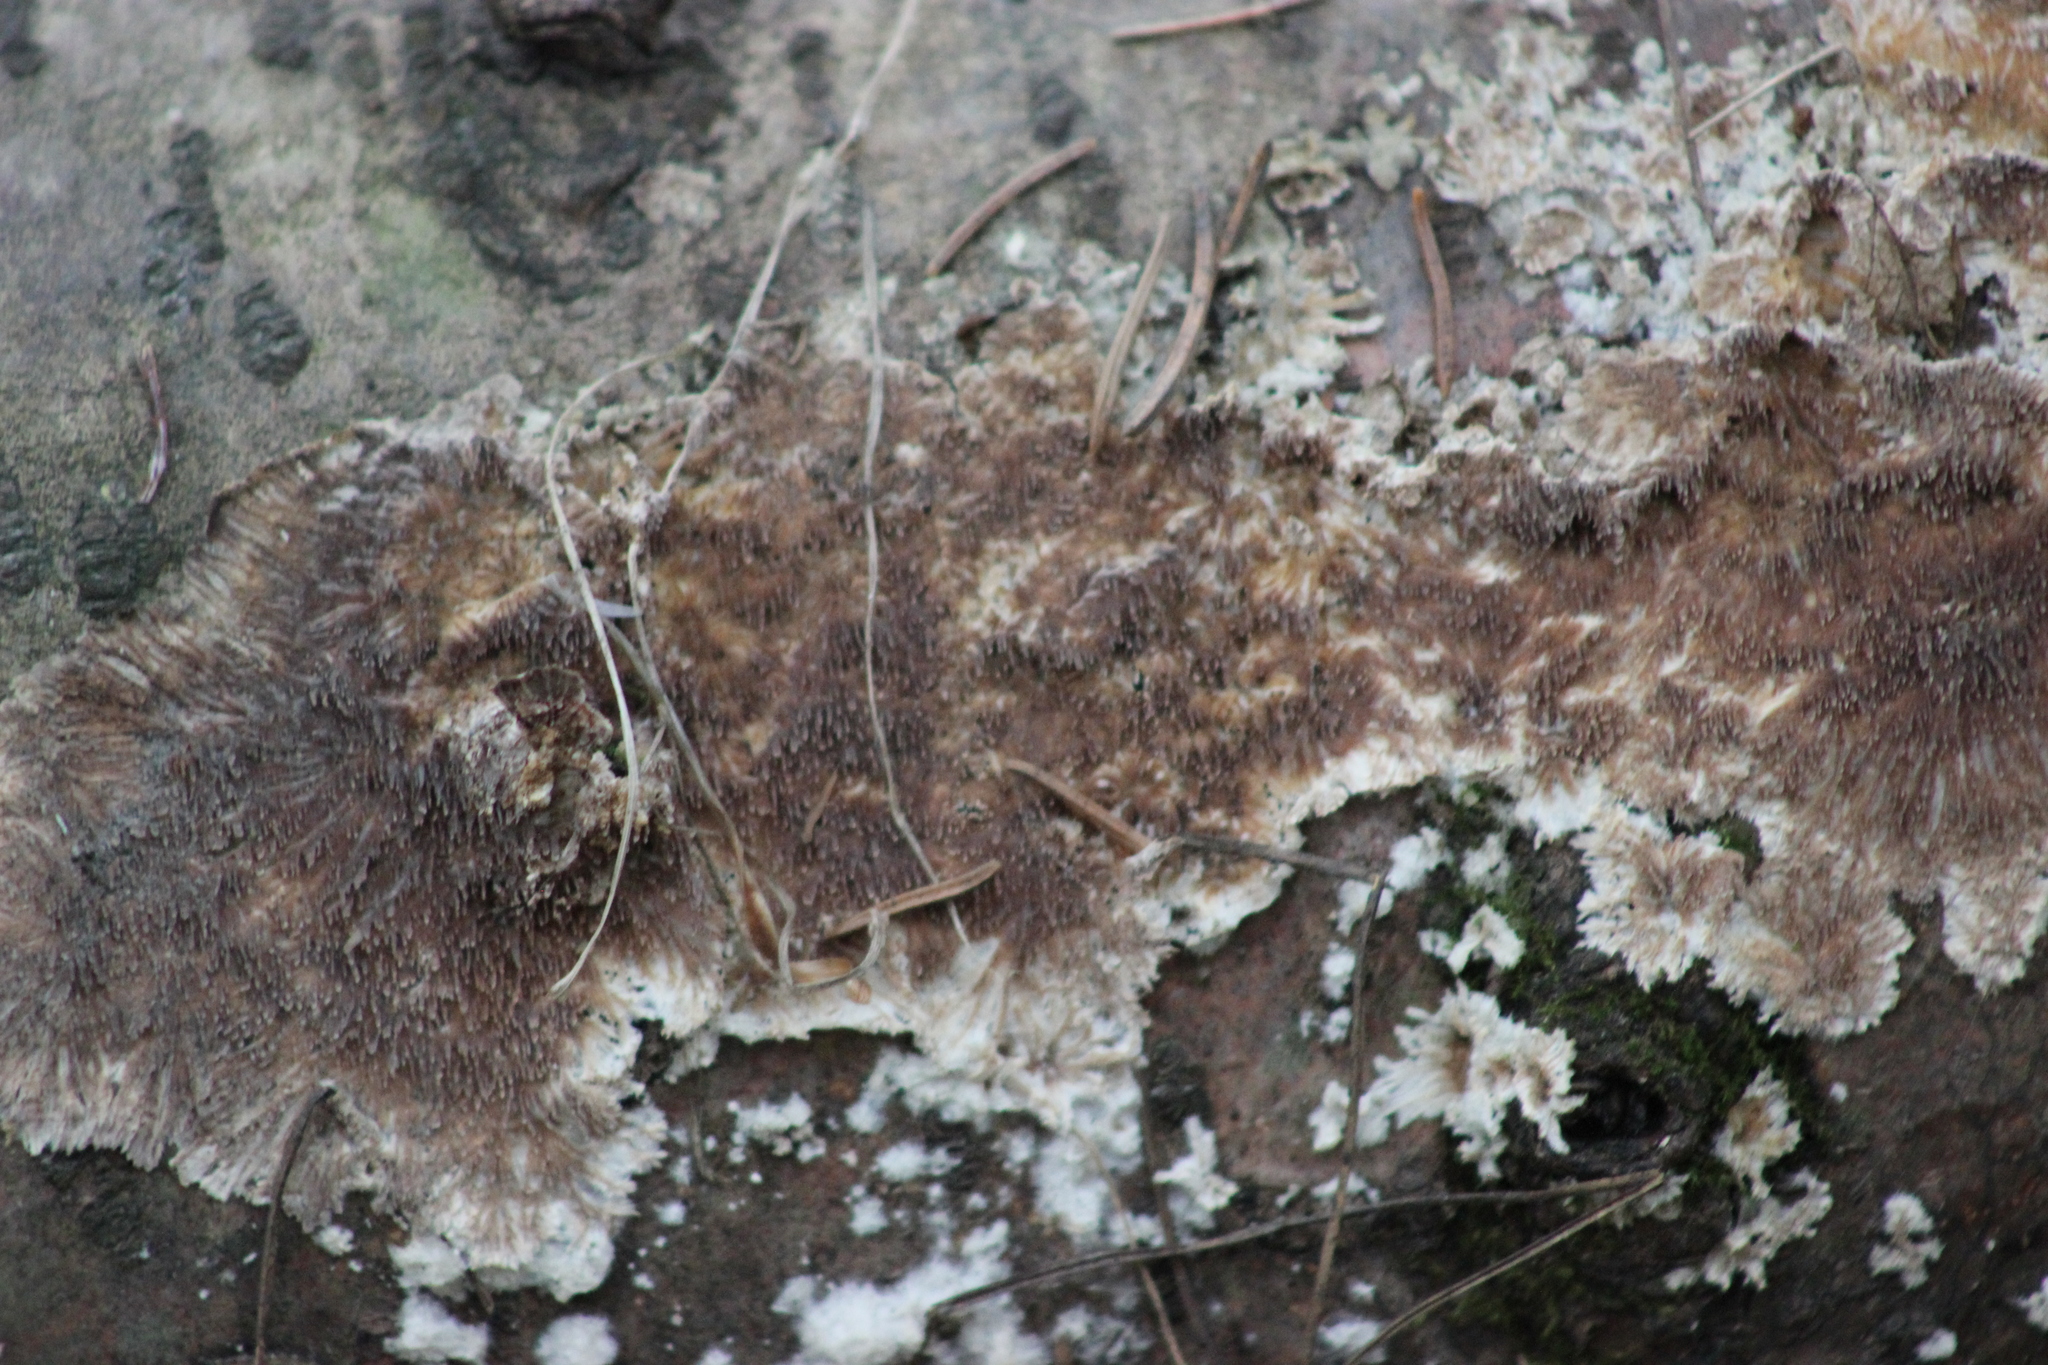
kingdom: Fungi
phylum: Basidiomycota
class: Agaricomycetes
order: Hymenochaetales
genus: Trichaptum
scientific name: Trichaptum fuscoviolaceum
